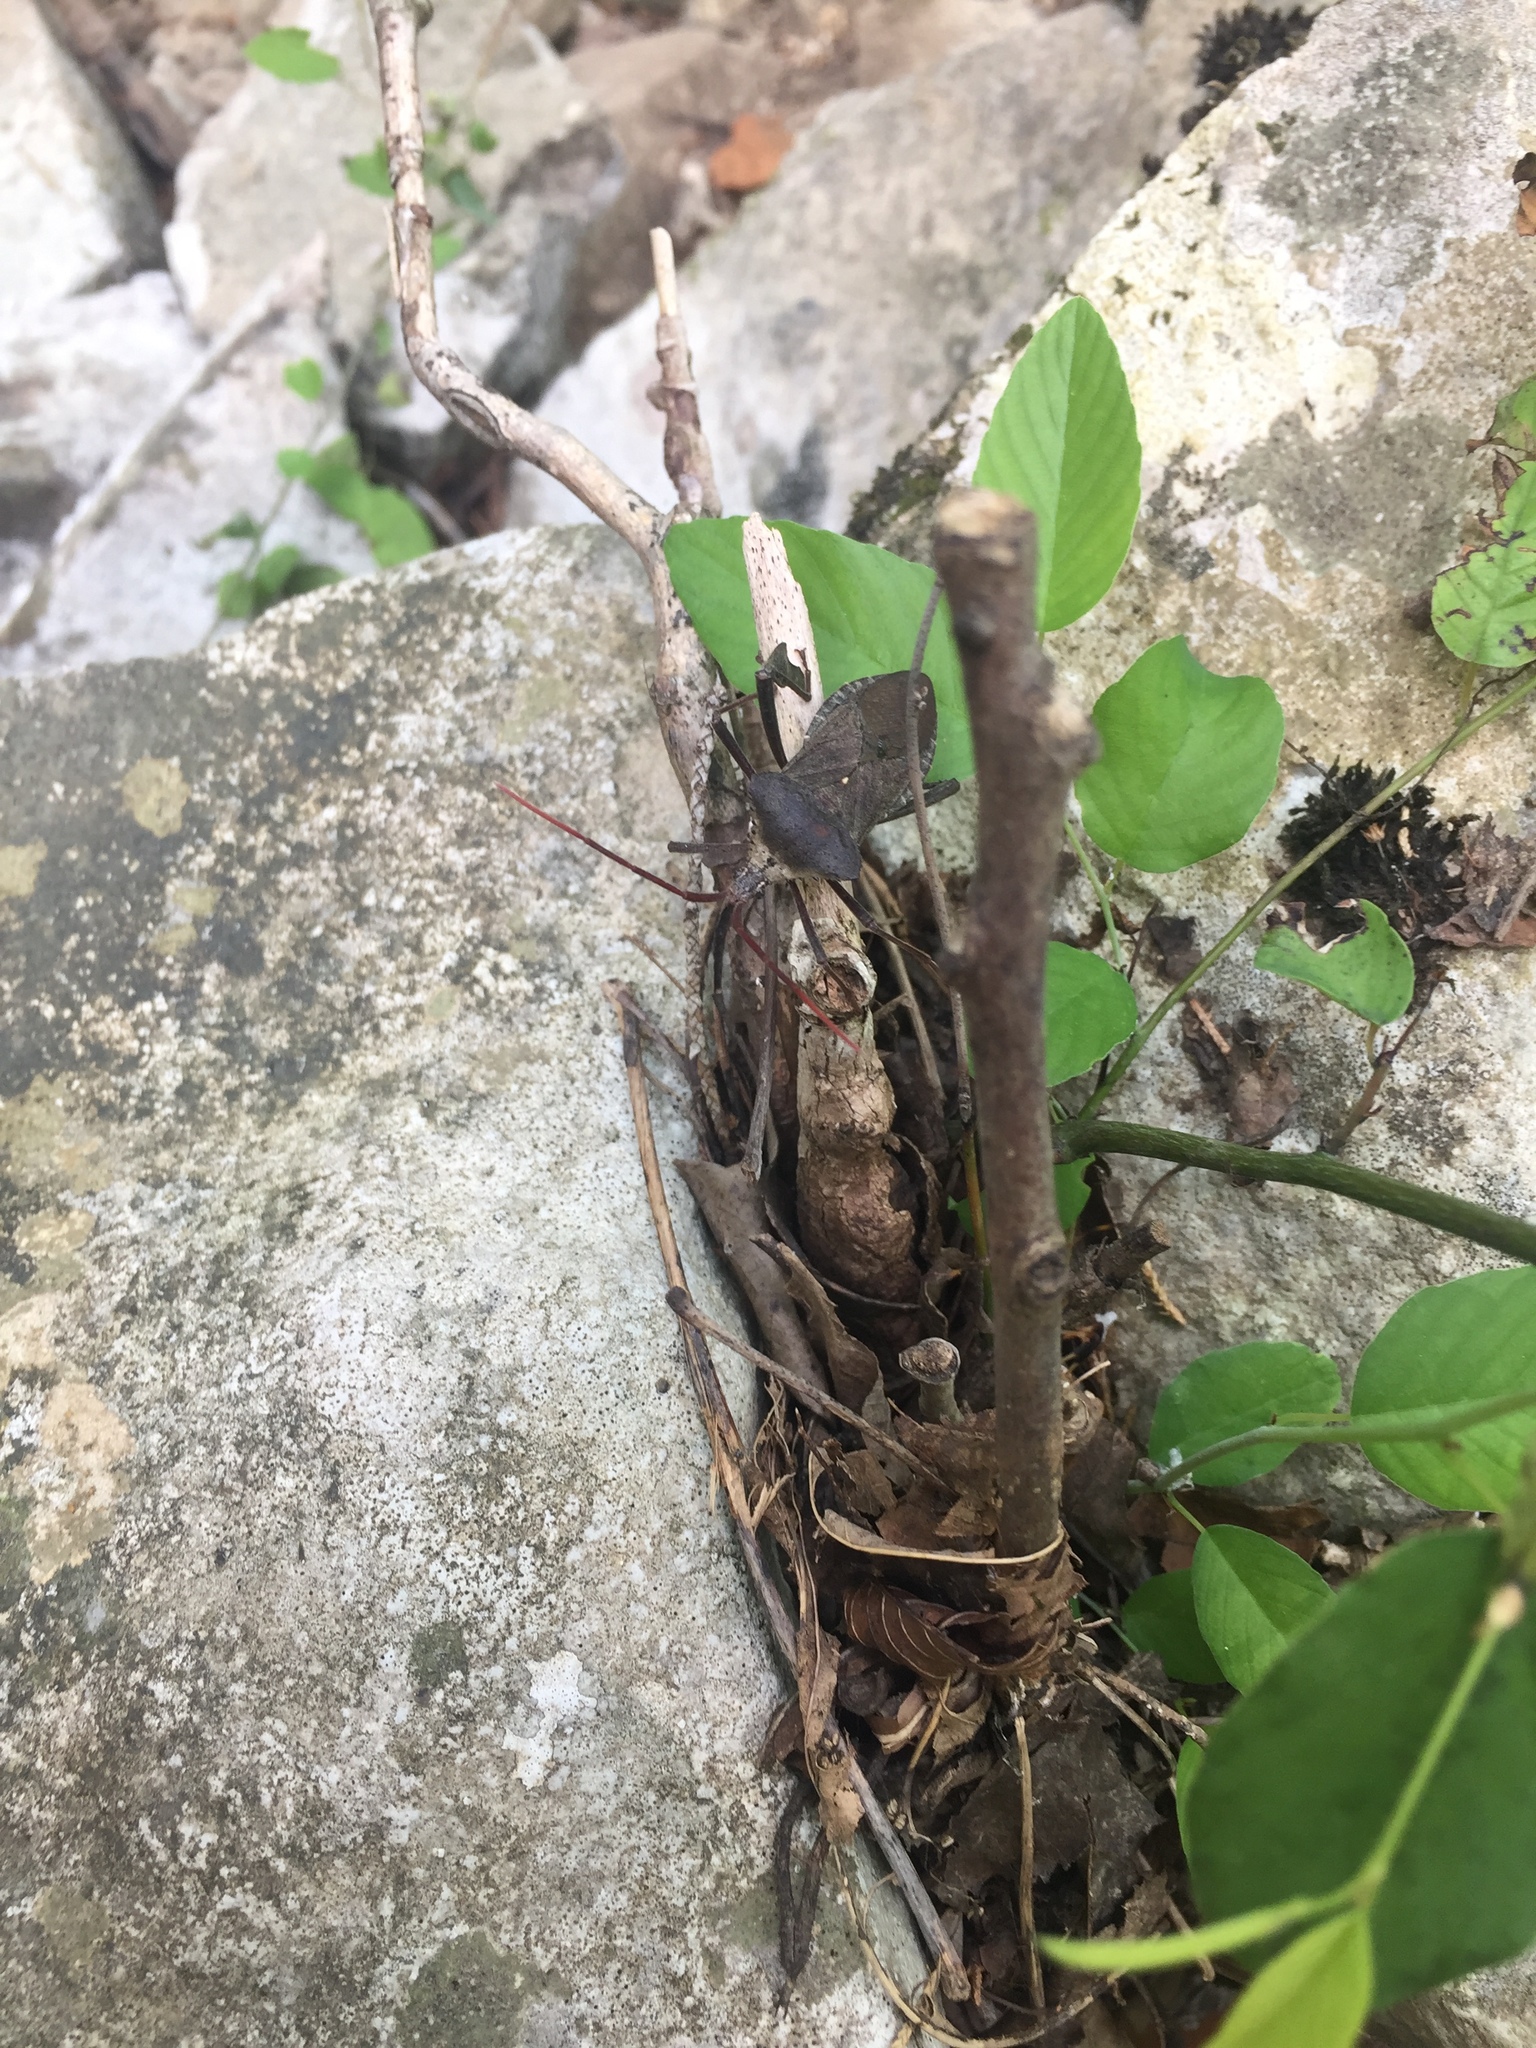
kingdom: Animalia
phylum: Arthropoda
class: Insecta
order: Hemiptera
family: Coreidae
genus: Acanthocephala
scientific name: Acanthocephala declivis
